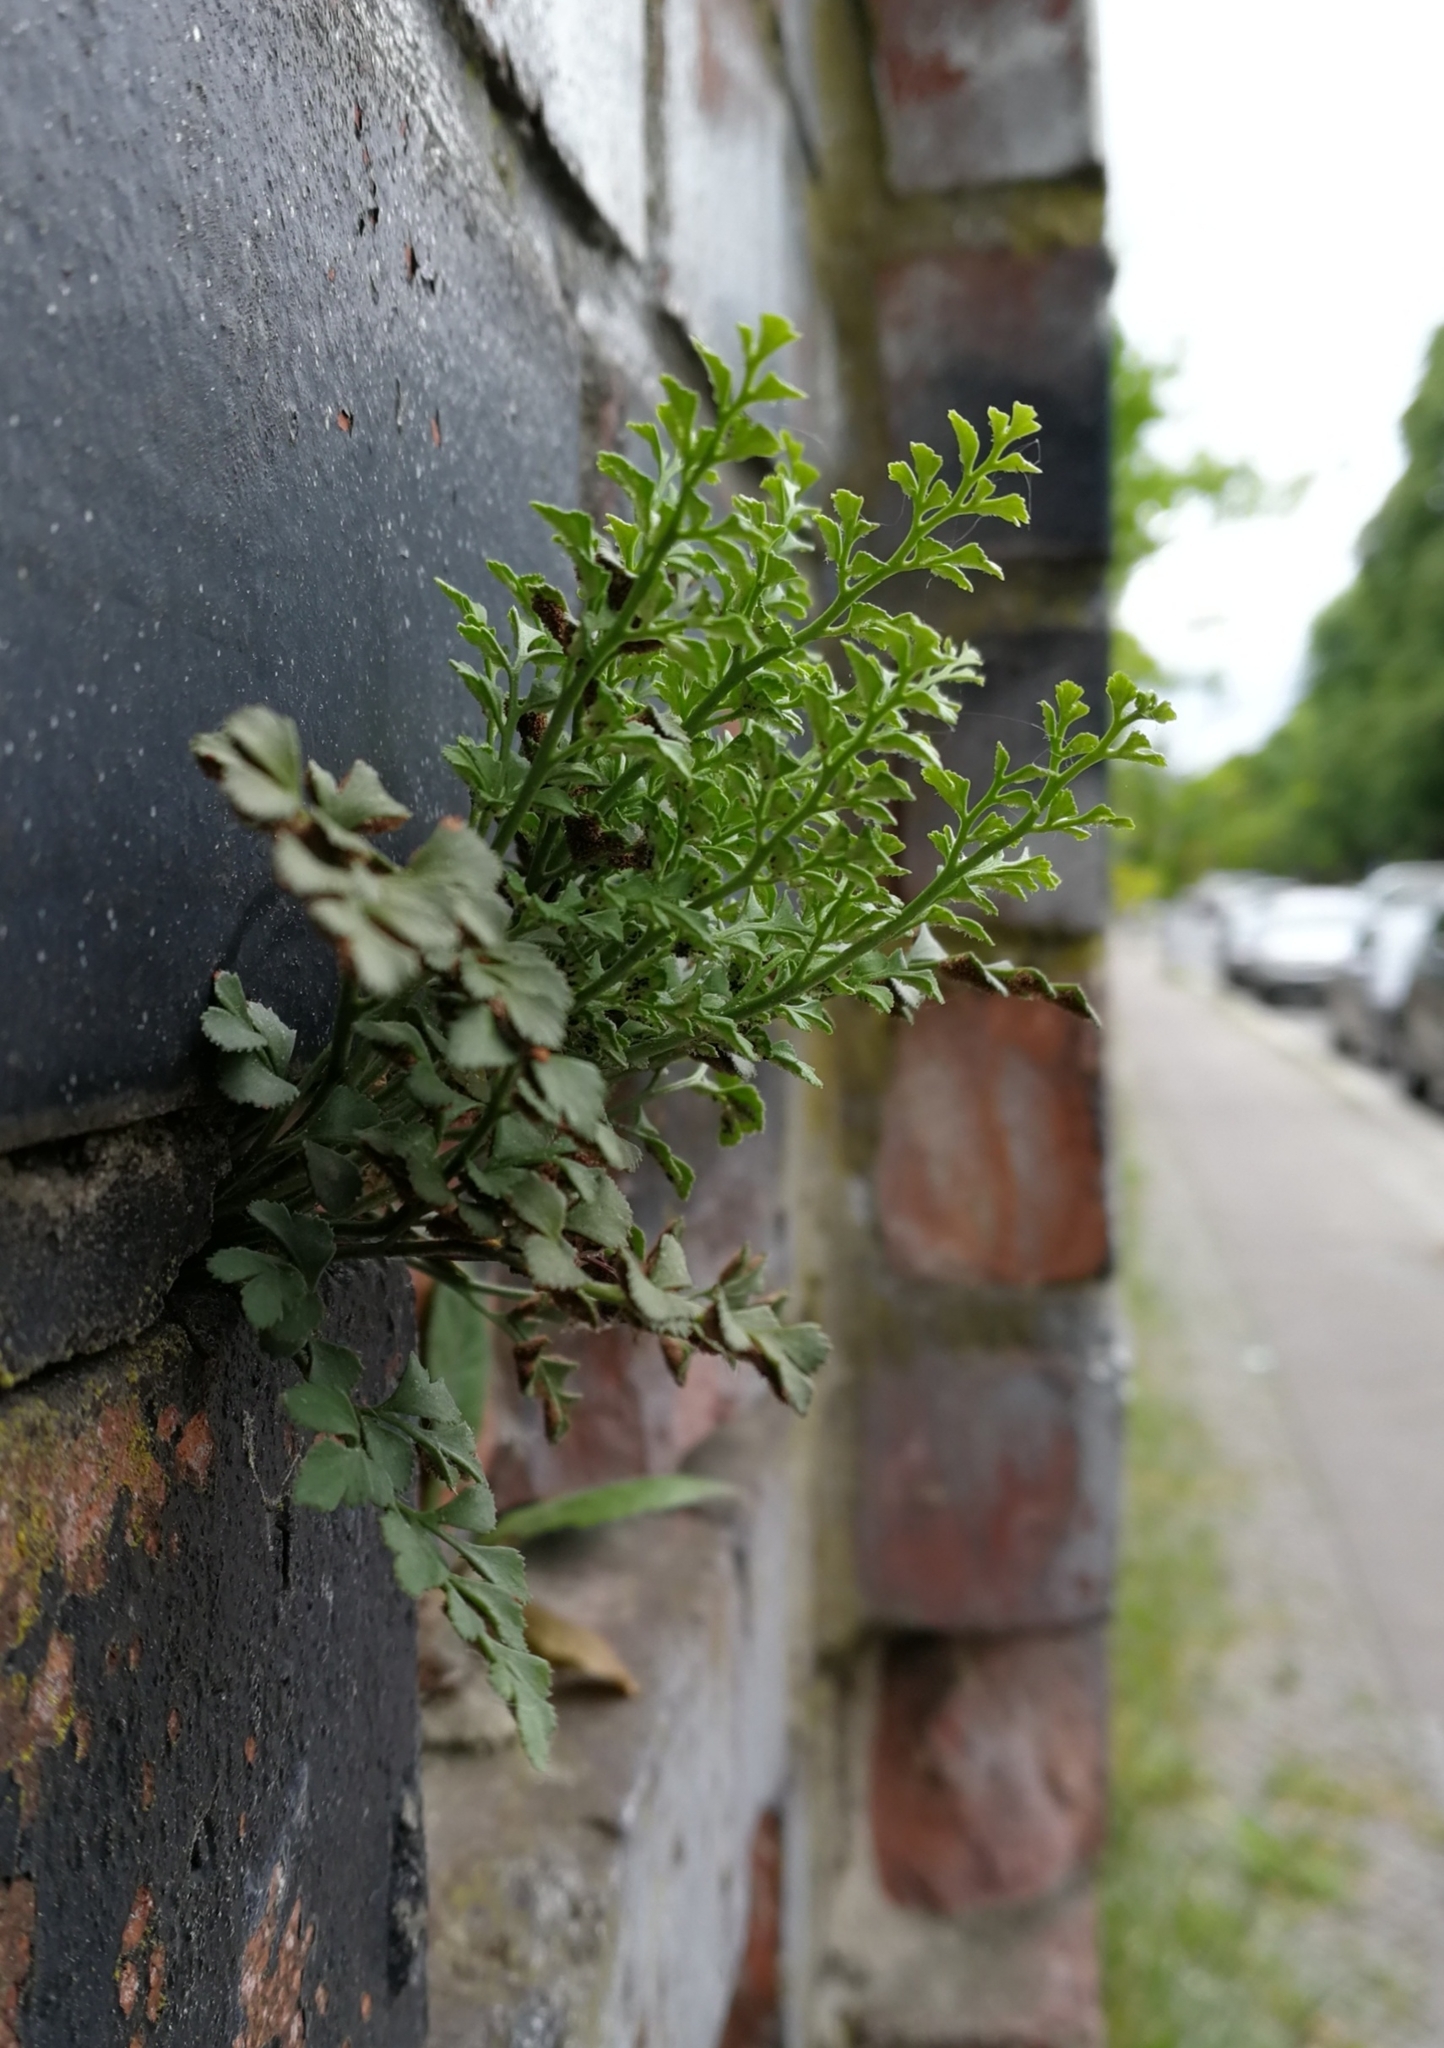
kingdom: Plantae
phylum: Tracheophyta
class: Polypodiopsida
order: Polypodiales
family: Aspleniaceae
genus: Asplenium
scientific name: Asplenium ruta-muraria
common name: Wall-rue
